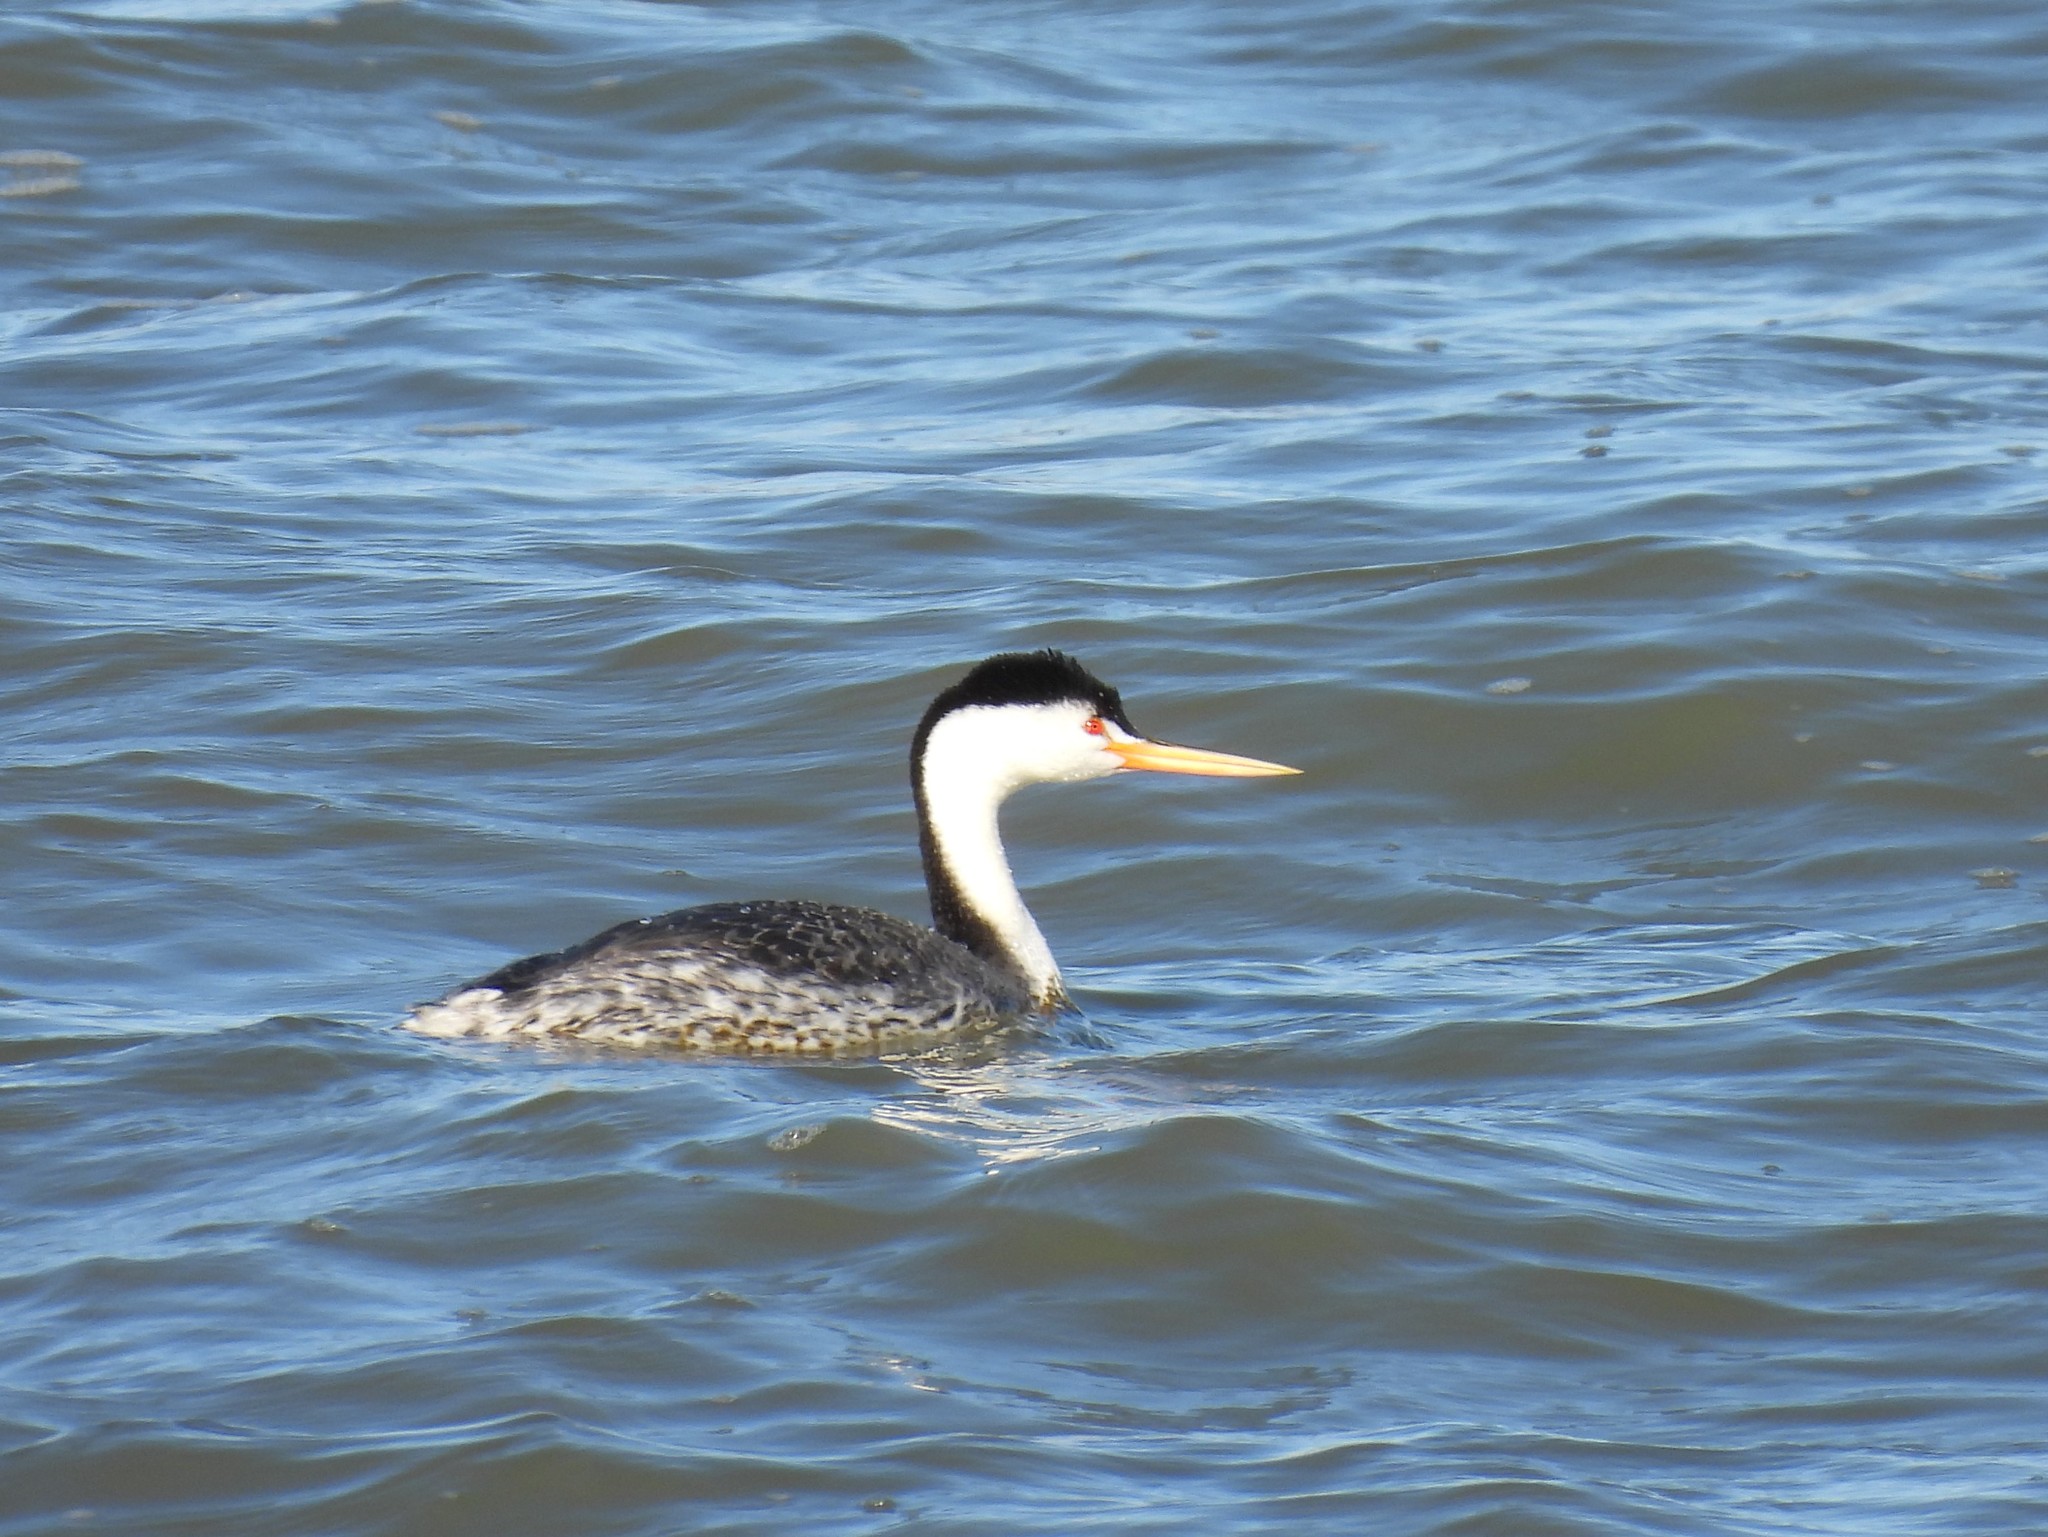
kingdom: Animalia
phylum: Chordata
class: Aves
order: Podicipediformes
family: Podicipedidae
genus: Aechmophorus
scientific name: Aechmophorus clarkii
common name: Clark's grebe
